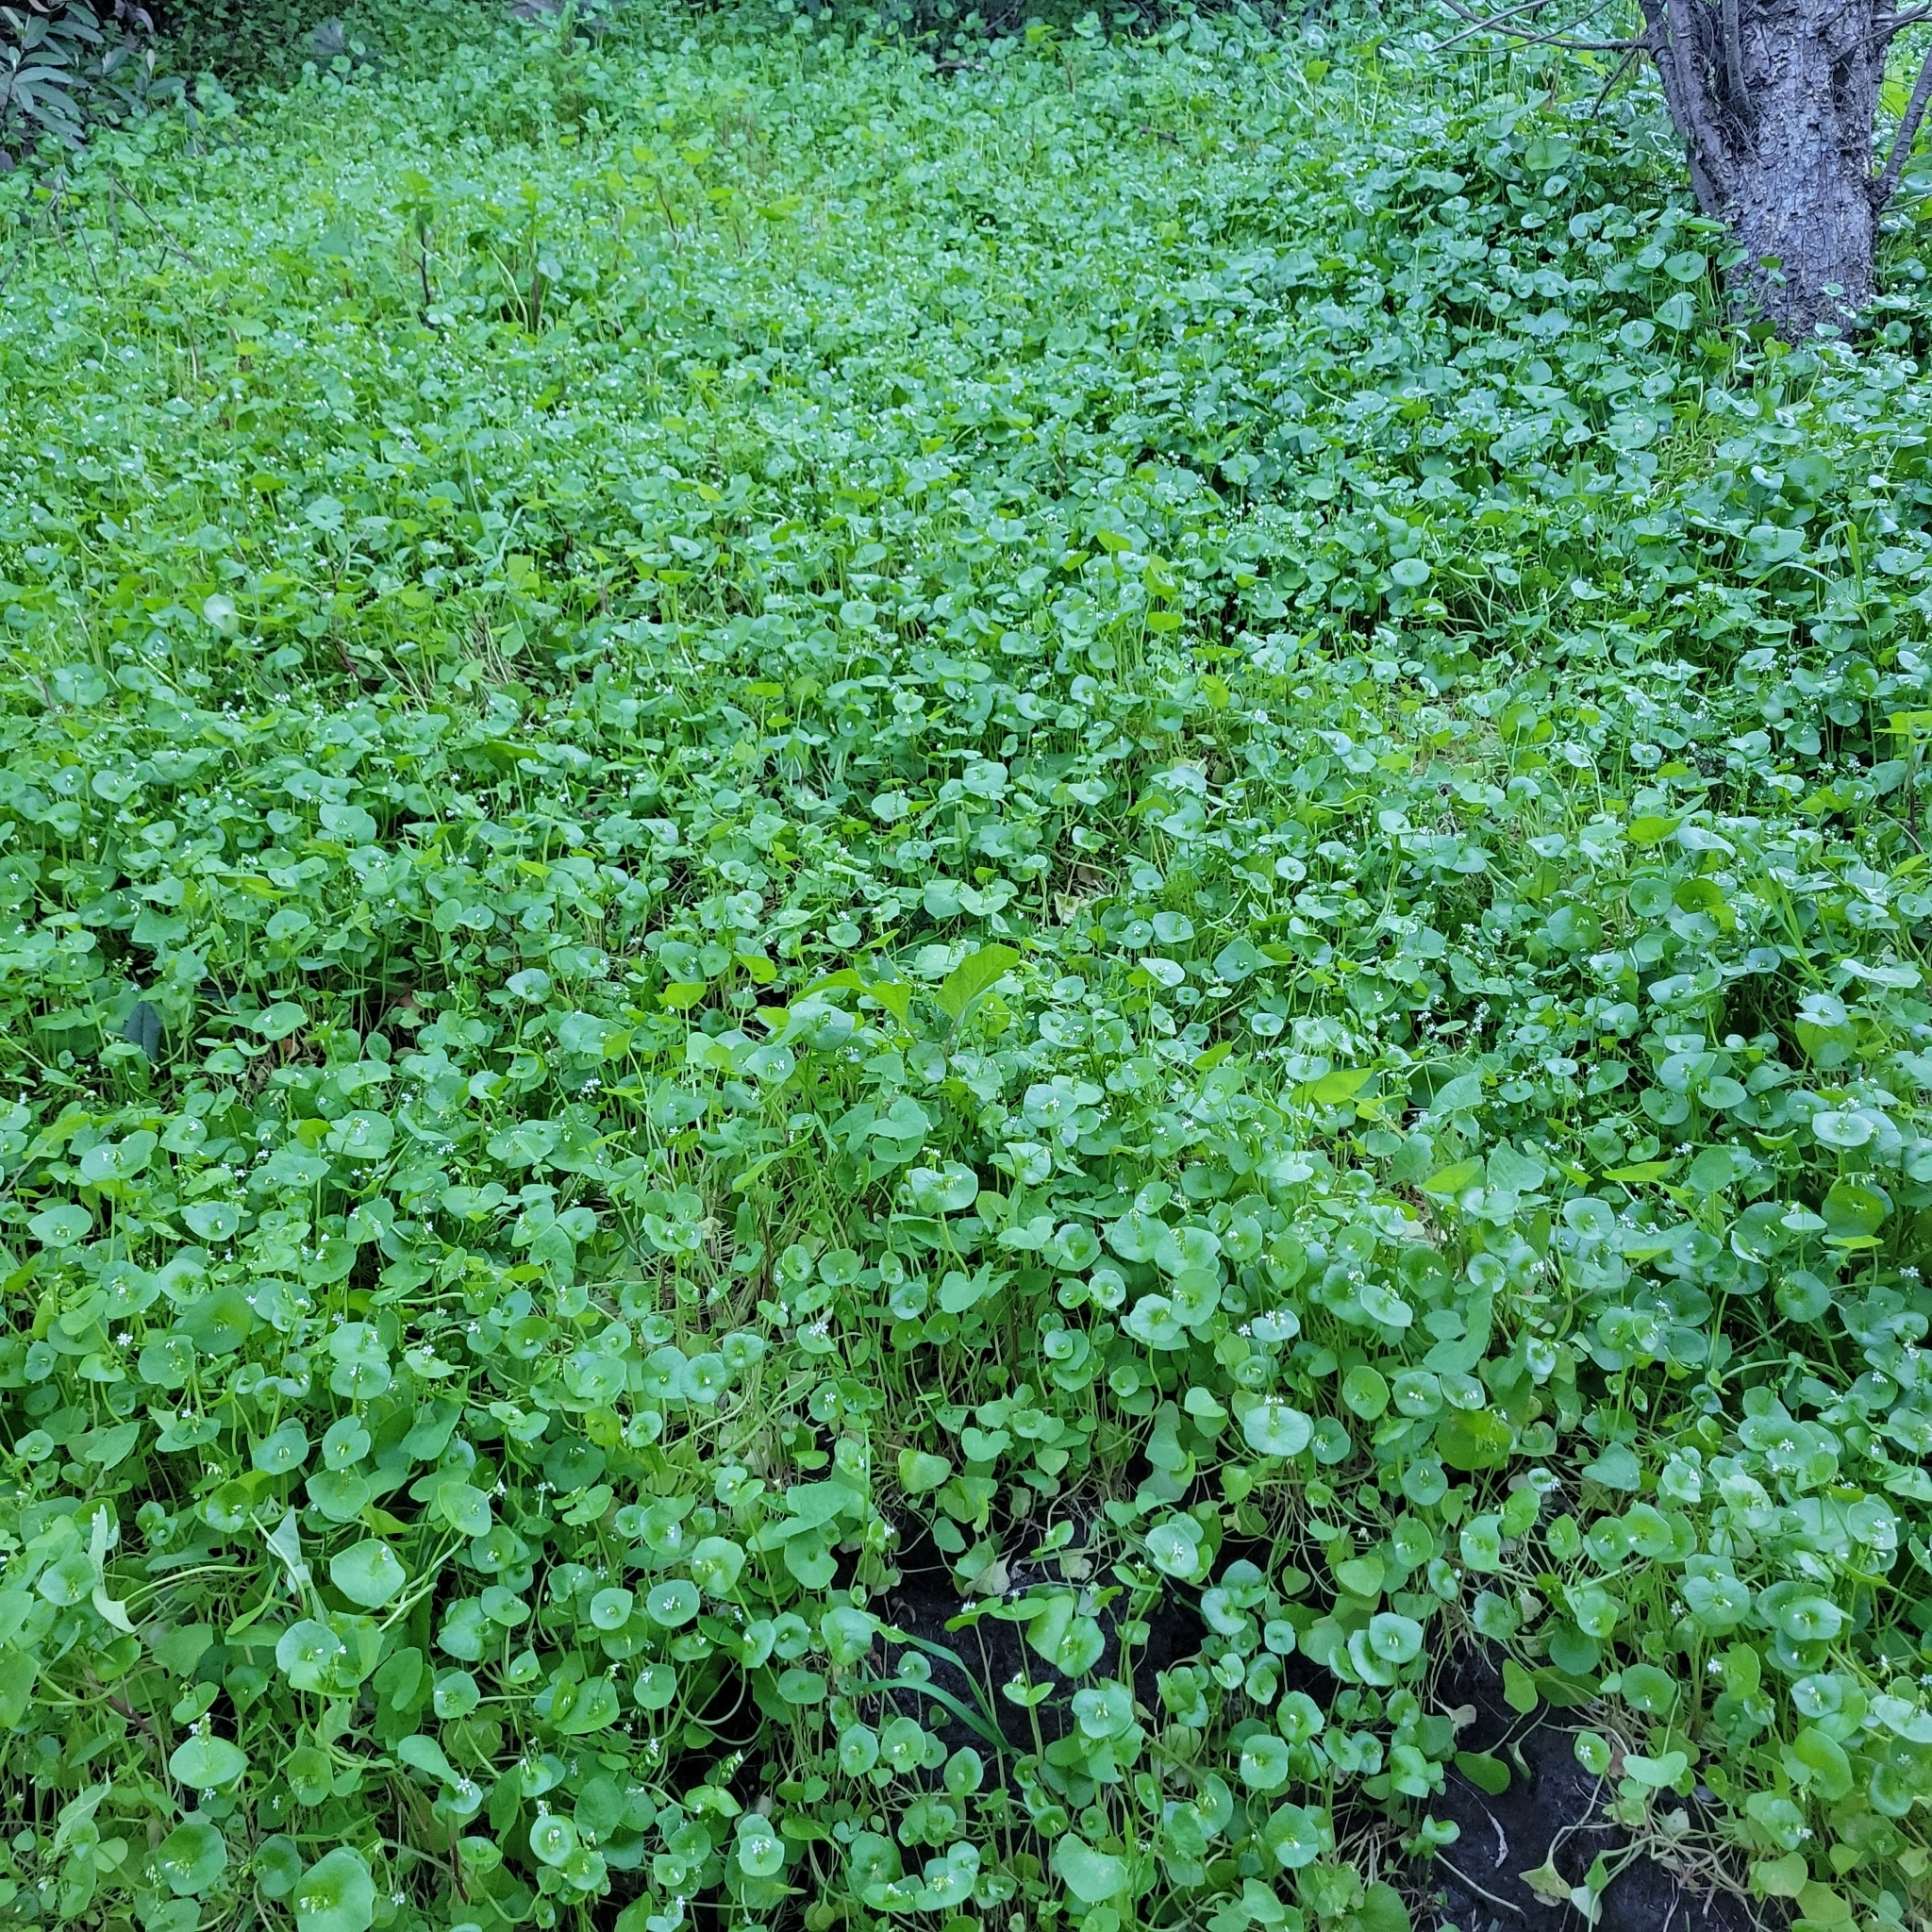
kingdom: Plantae
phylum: Tracheophyta
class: Magnoliopsida
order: Caryophyllales
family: Montiaceae
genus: Claytonia
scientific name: Claytonia perfoliata
